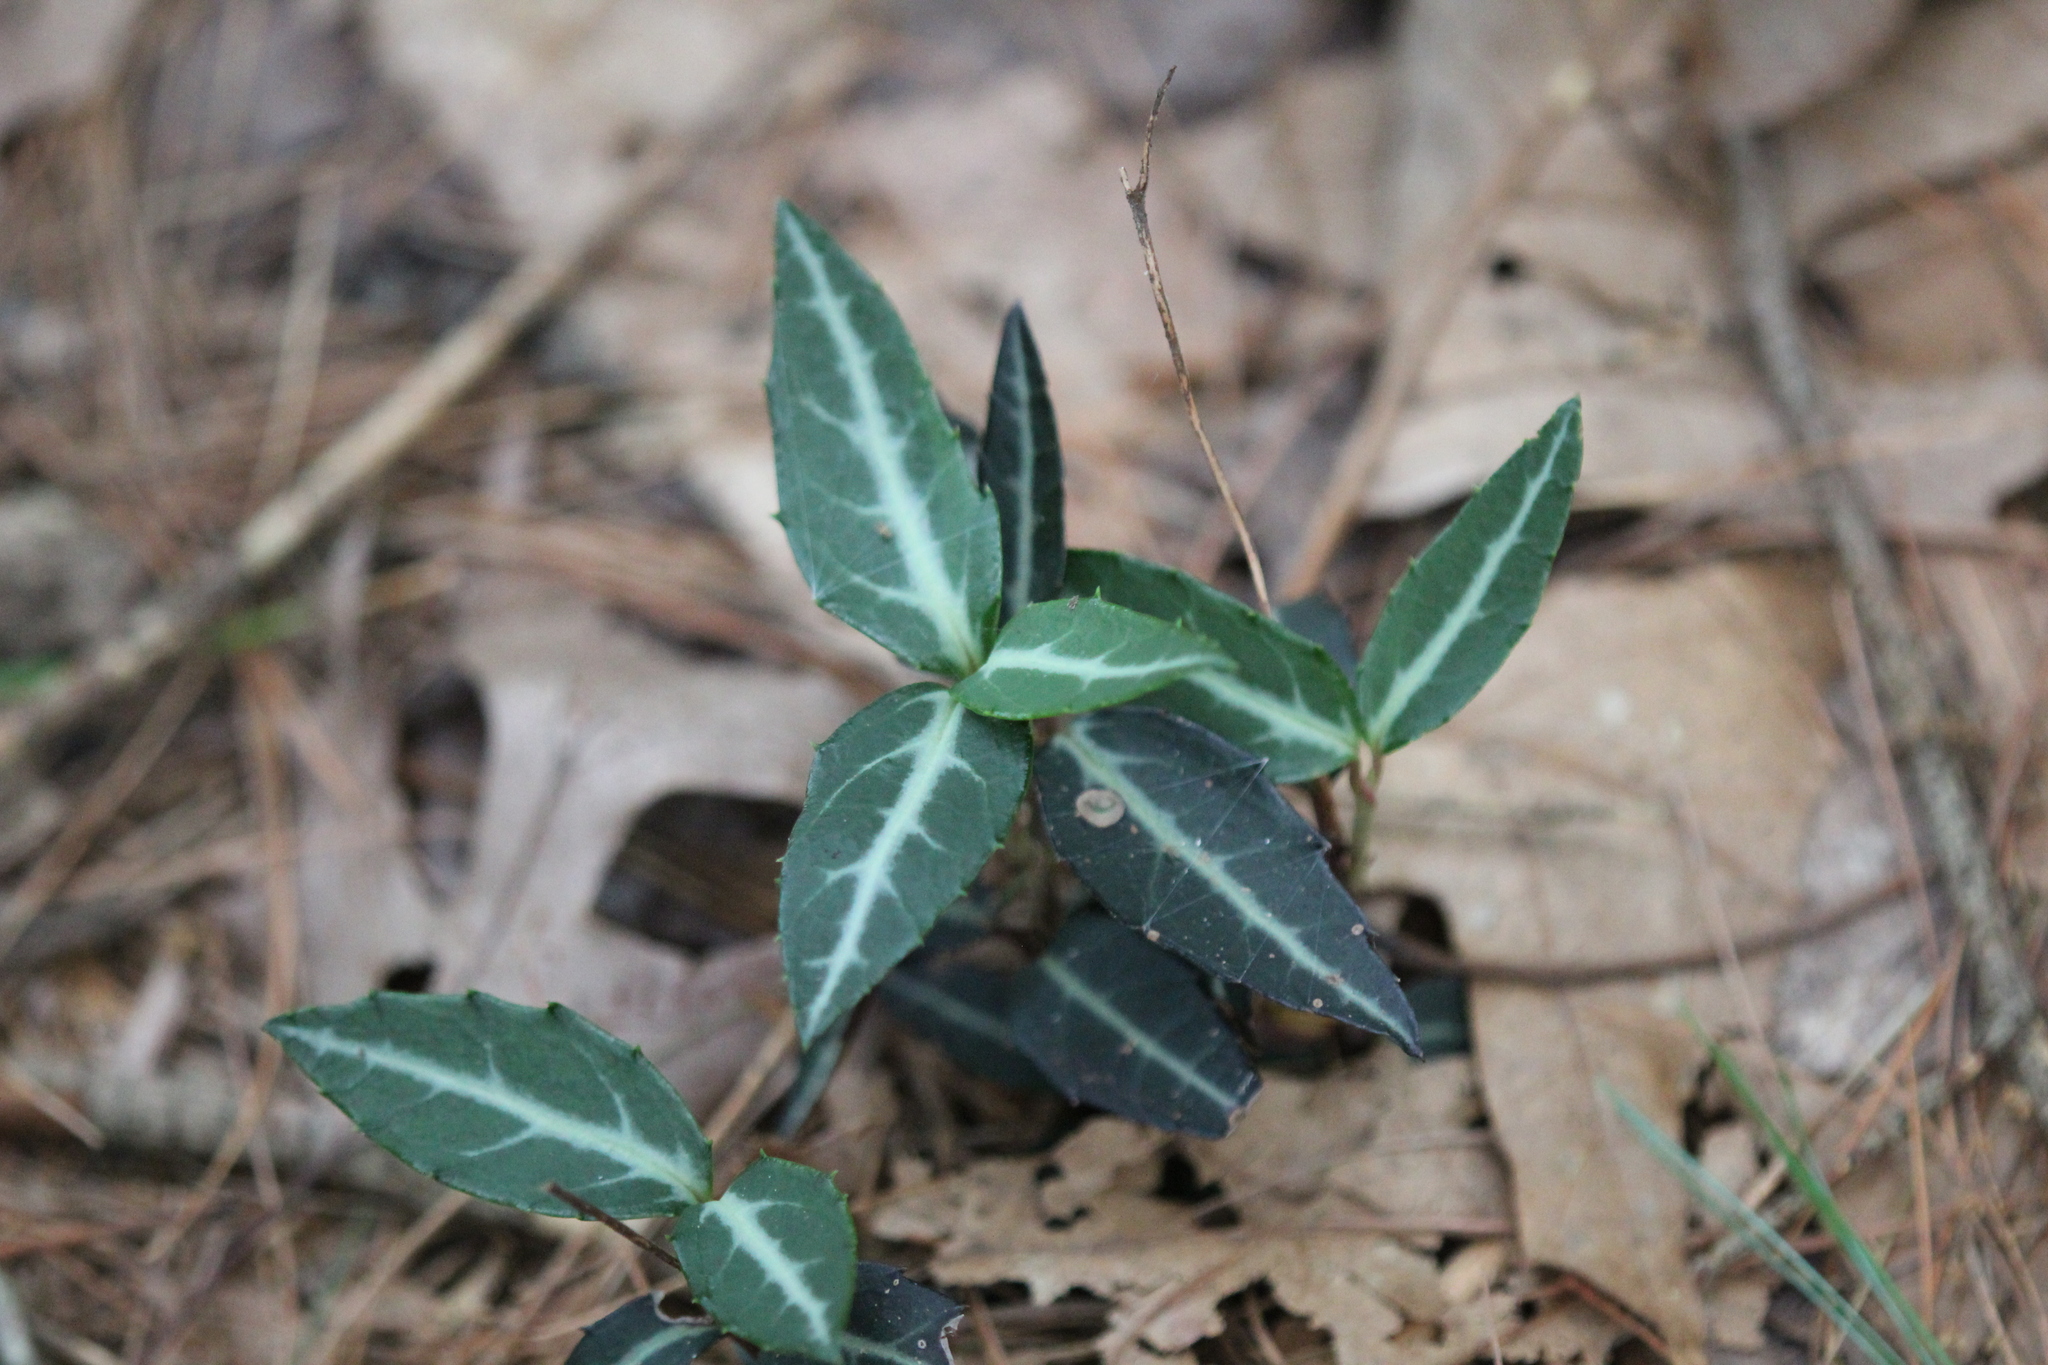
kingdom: Plantae
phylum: Tracheophyta
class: Magnoliopsida
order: Ericales
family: Ericaceae
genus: Chimaphila
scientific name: Chimaphila maculata
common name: Spotted pipsissewa
